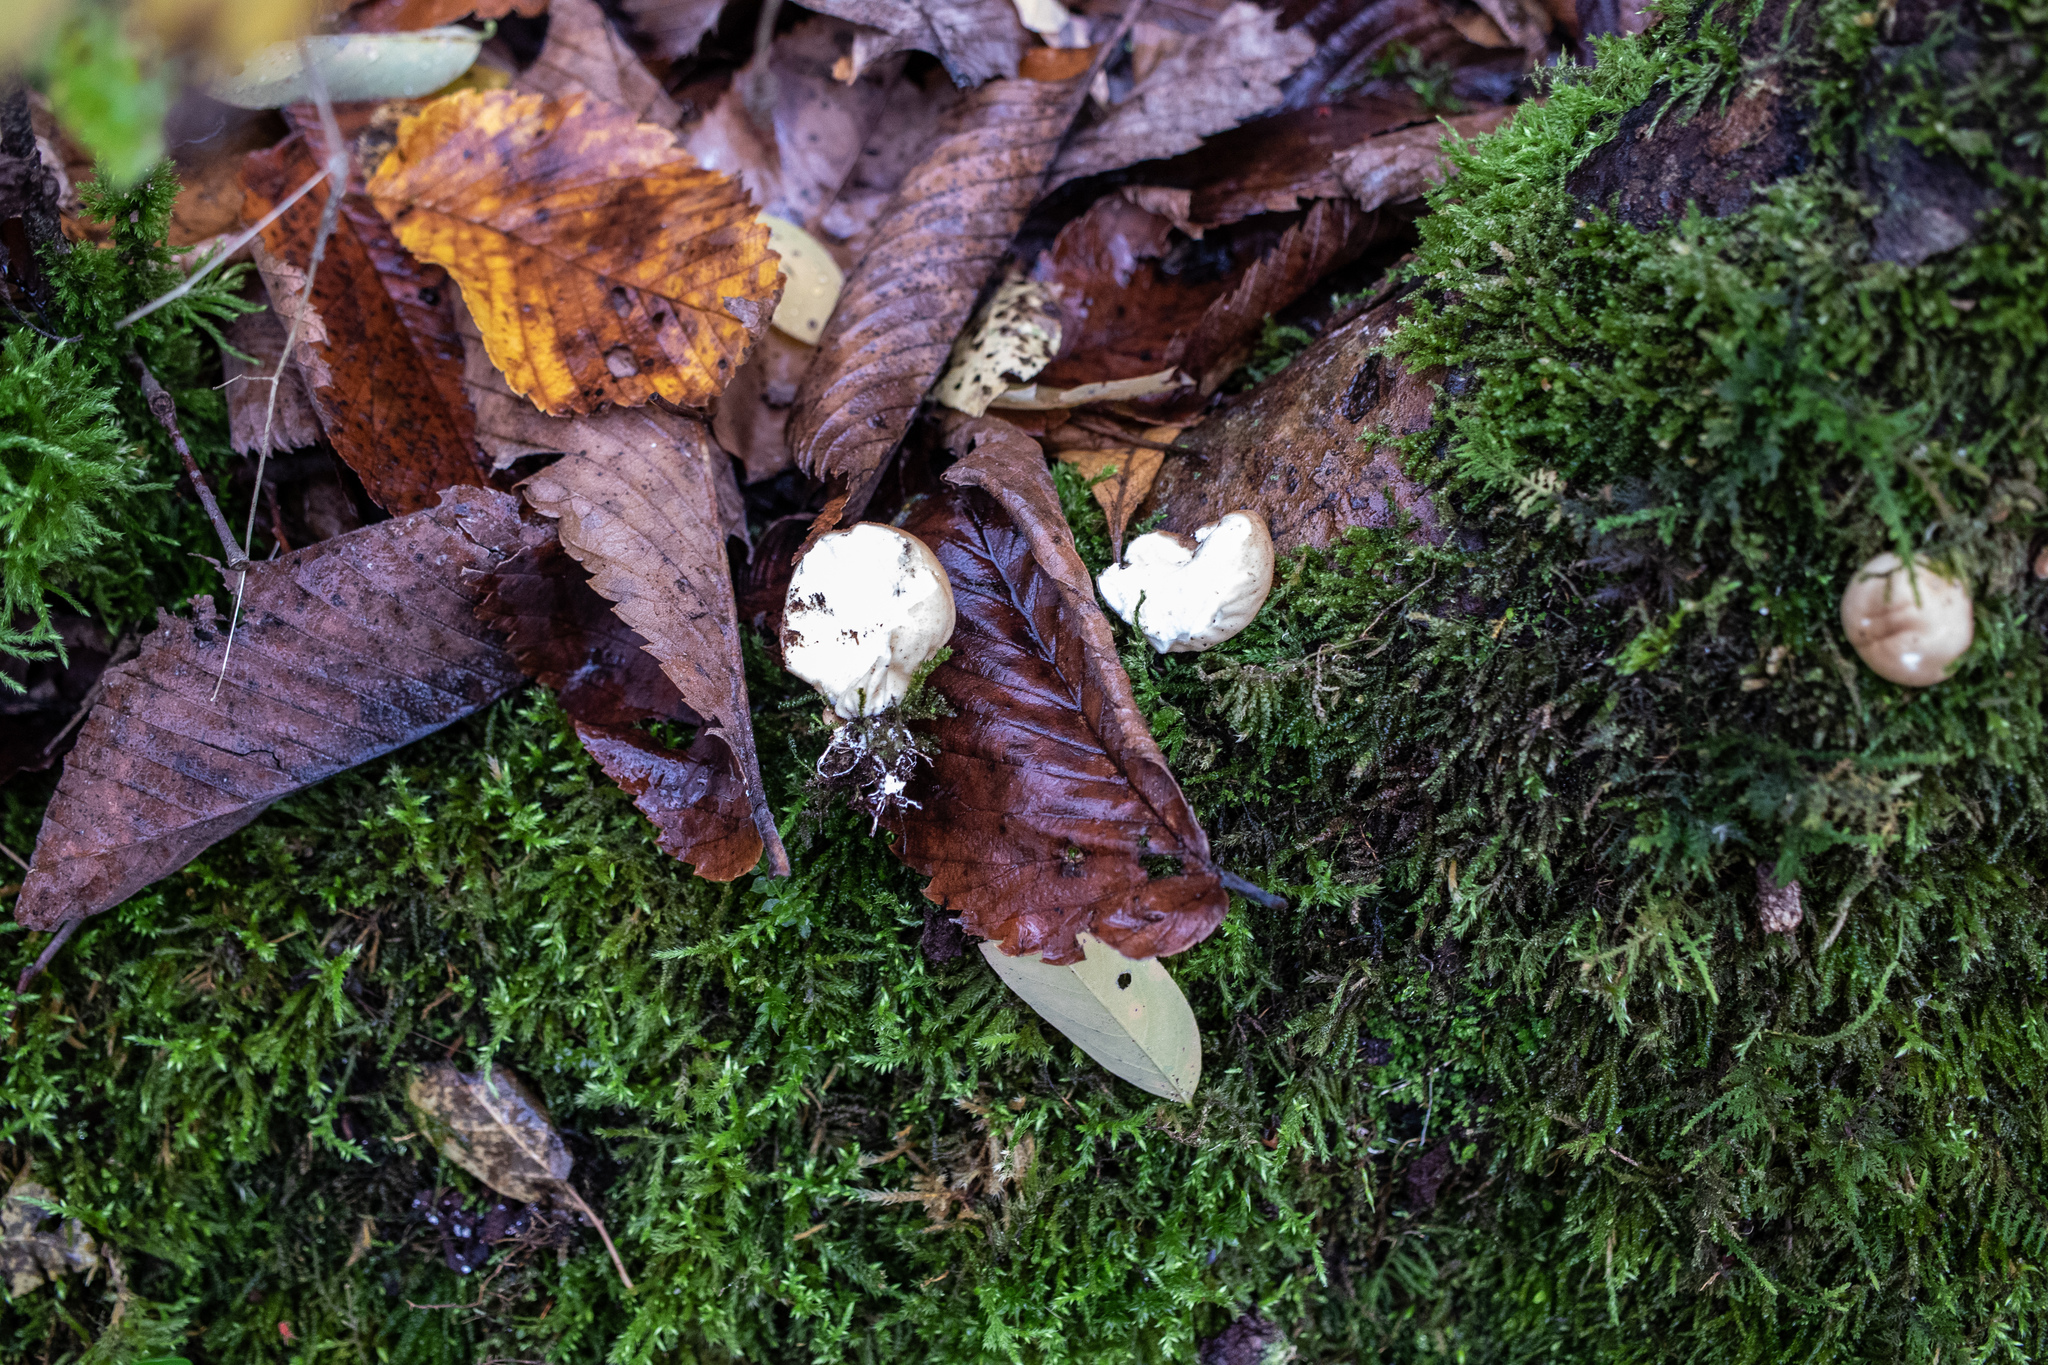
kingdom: Fungi
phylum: Basidiomycota
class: Agaricomycetes
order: Agaricales
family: Lycoperdaceae
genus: Apioperdon
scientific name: Apioperdon pyriforme
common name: Pear-shaped puffball
